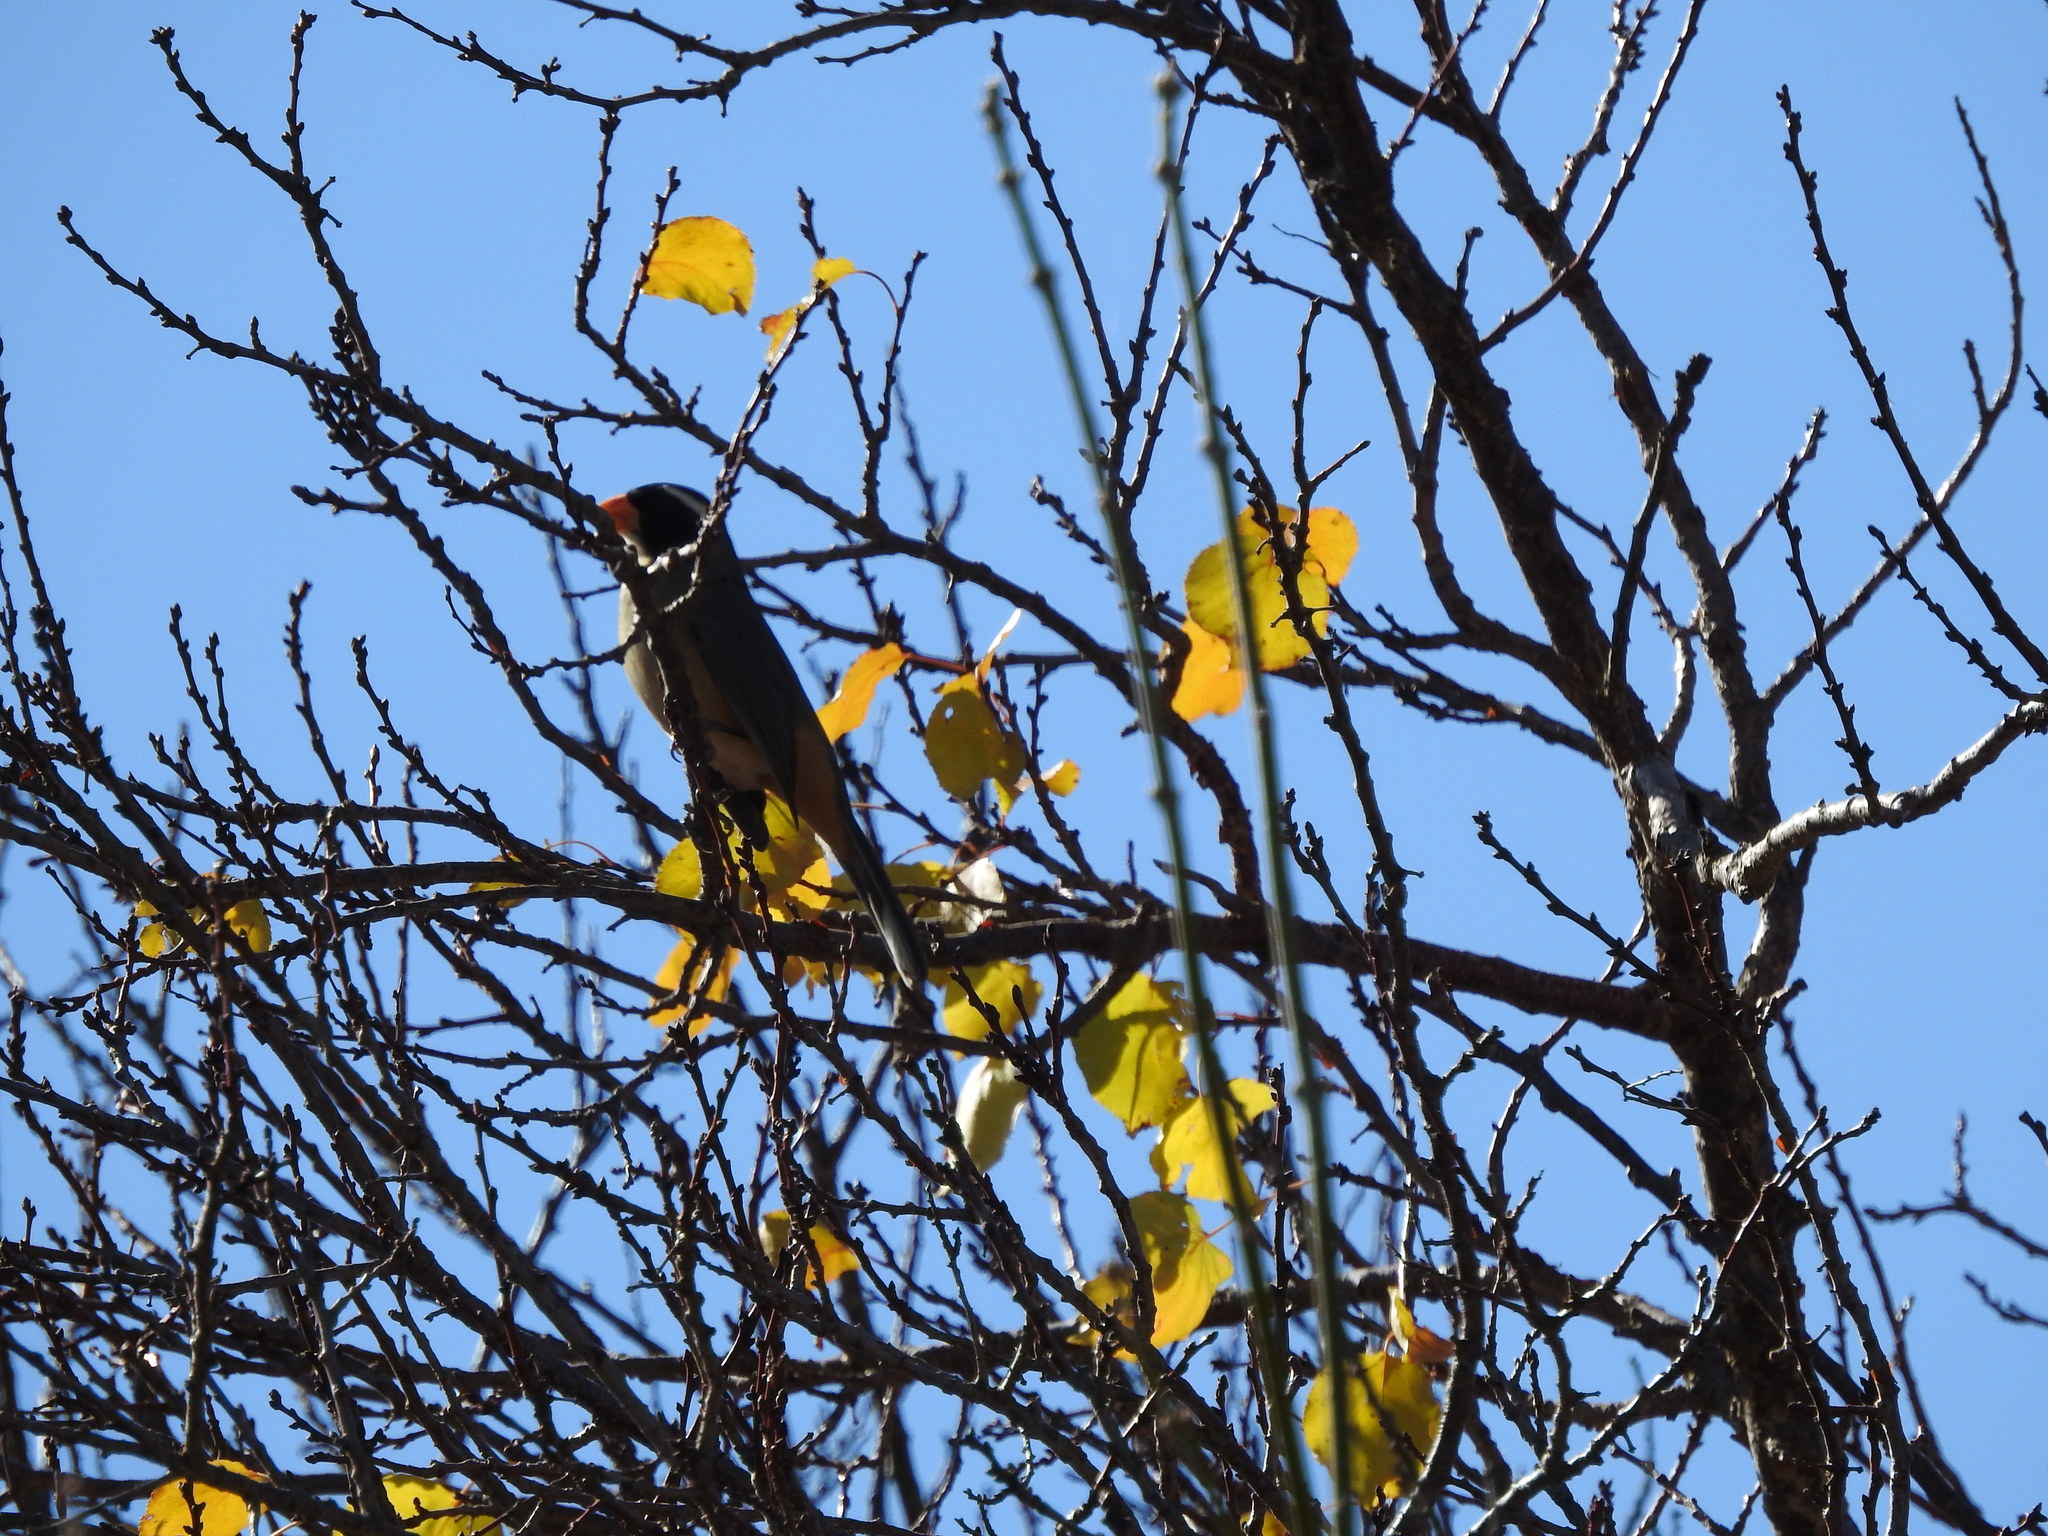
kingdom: Animalia
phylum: Chordata
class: Aves
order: Passeriformes
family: Thraupidae
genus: Saltator
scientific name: Saltator aurantiirostris
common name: Golden-billed saltator
